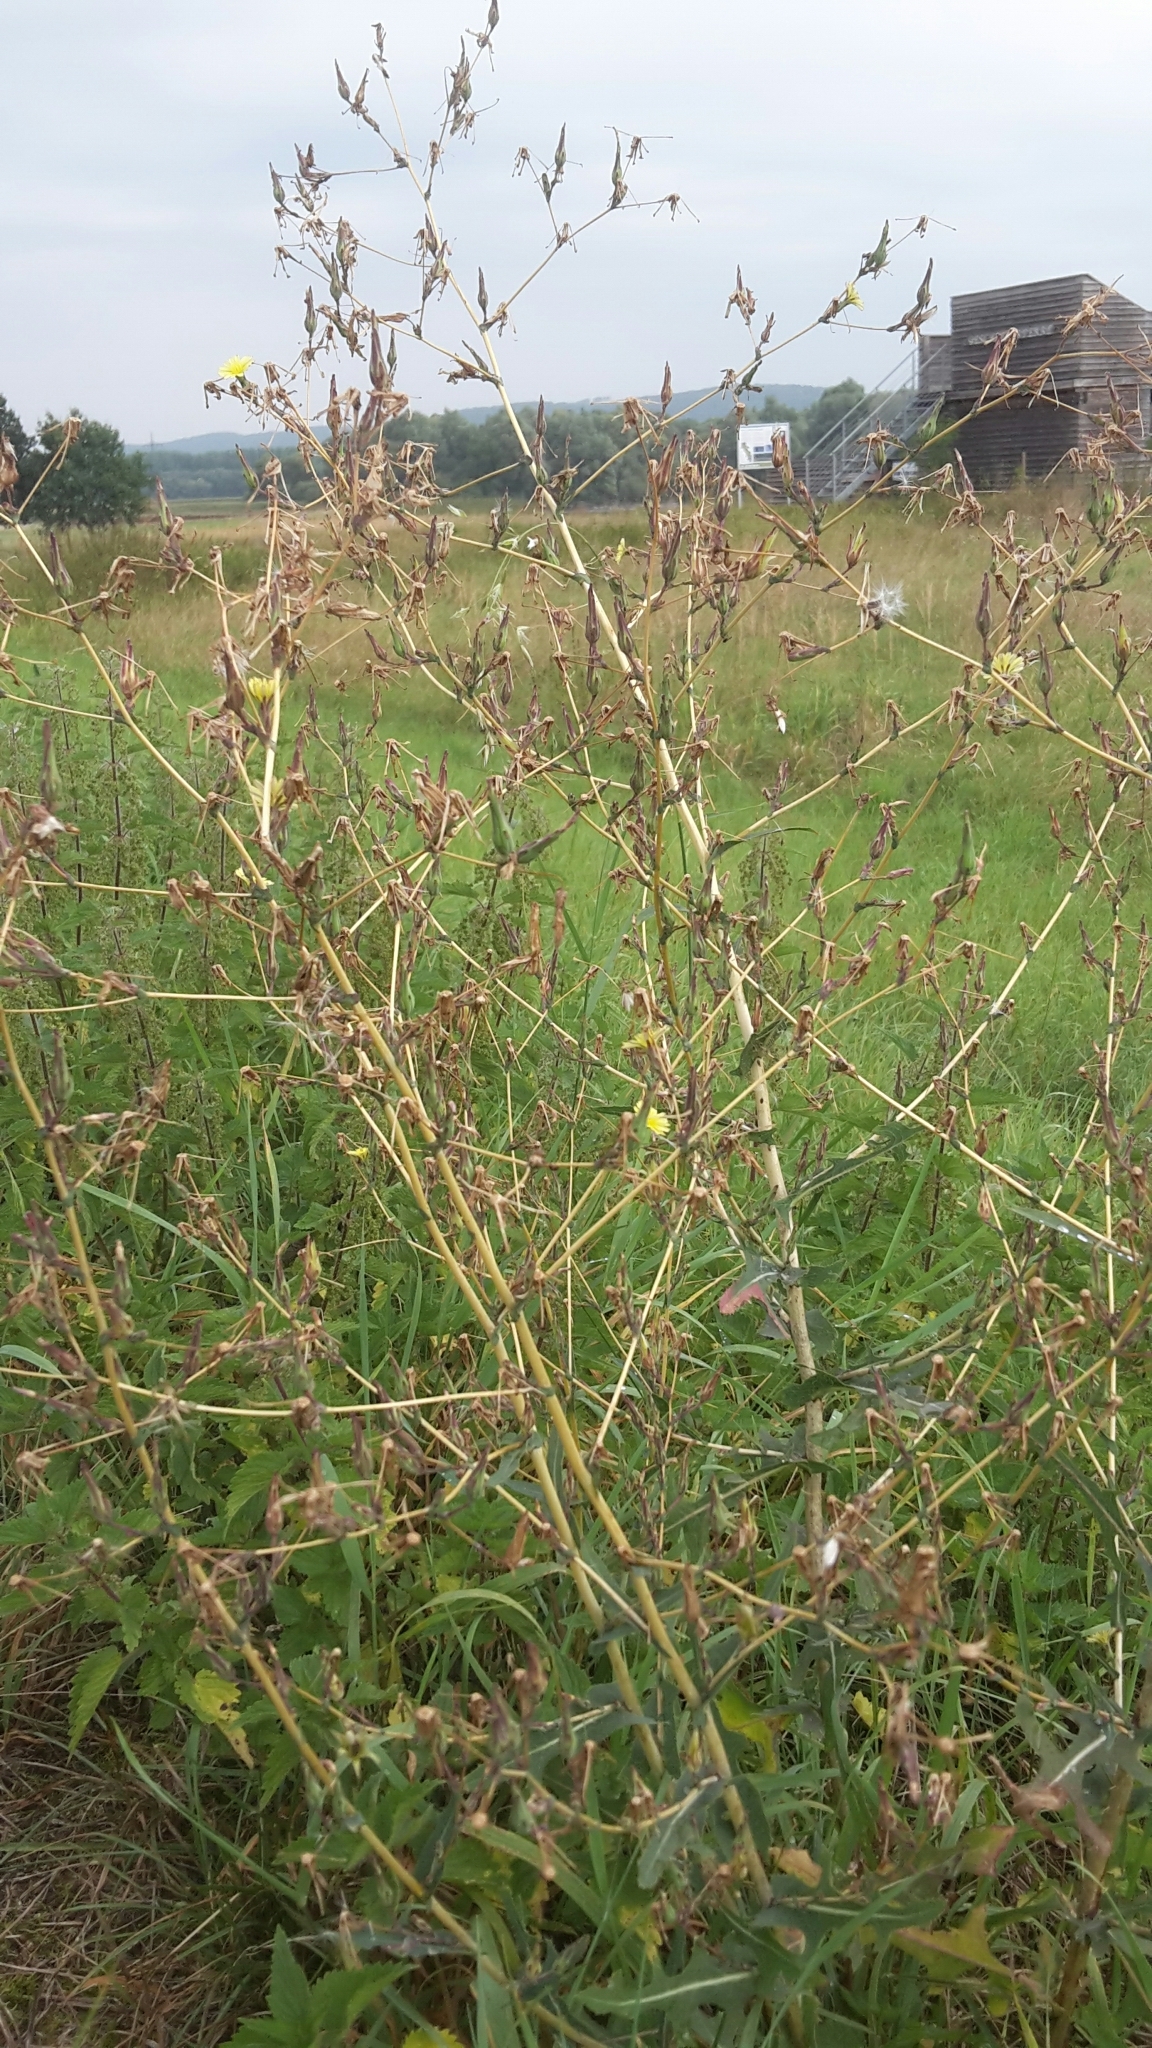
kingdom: Plantae
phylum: Tracheophyta
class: Magnoliopsida
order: Asterales
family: Asteraceae
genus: Lactuca
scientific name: Lactuca serriola
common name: Prickly lettuce
